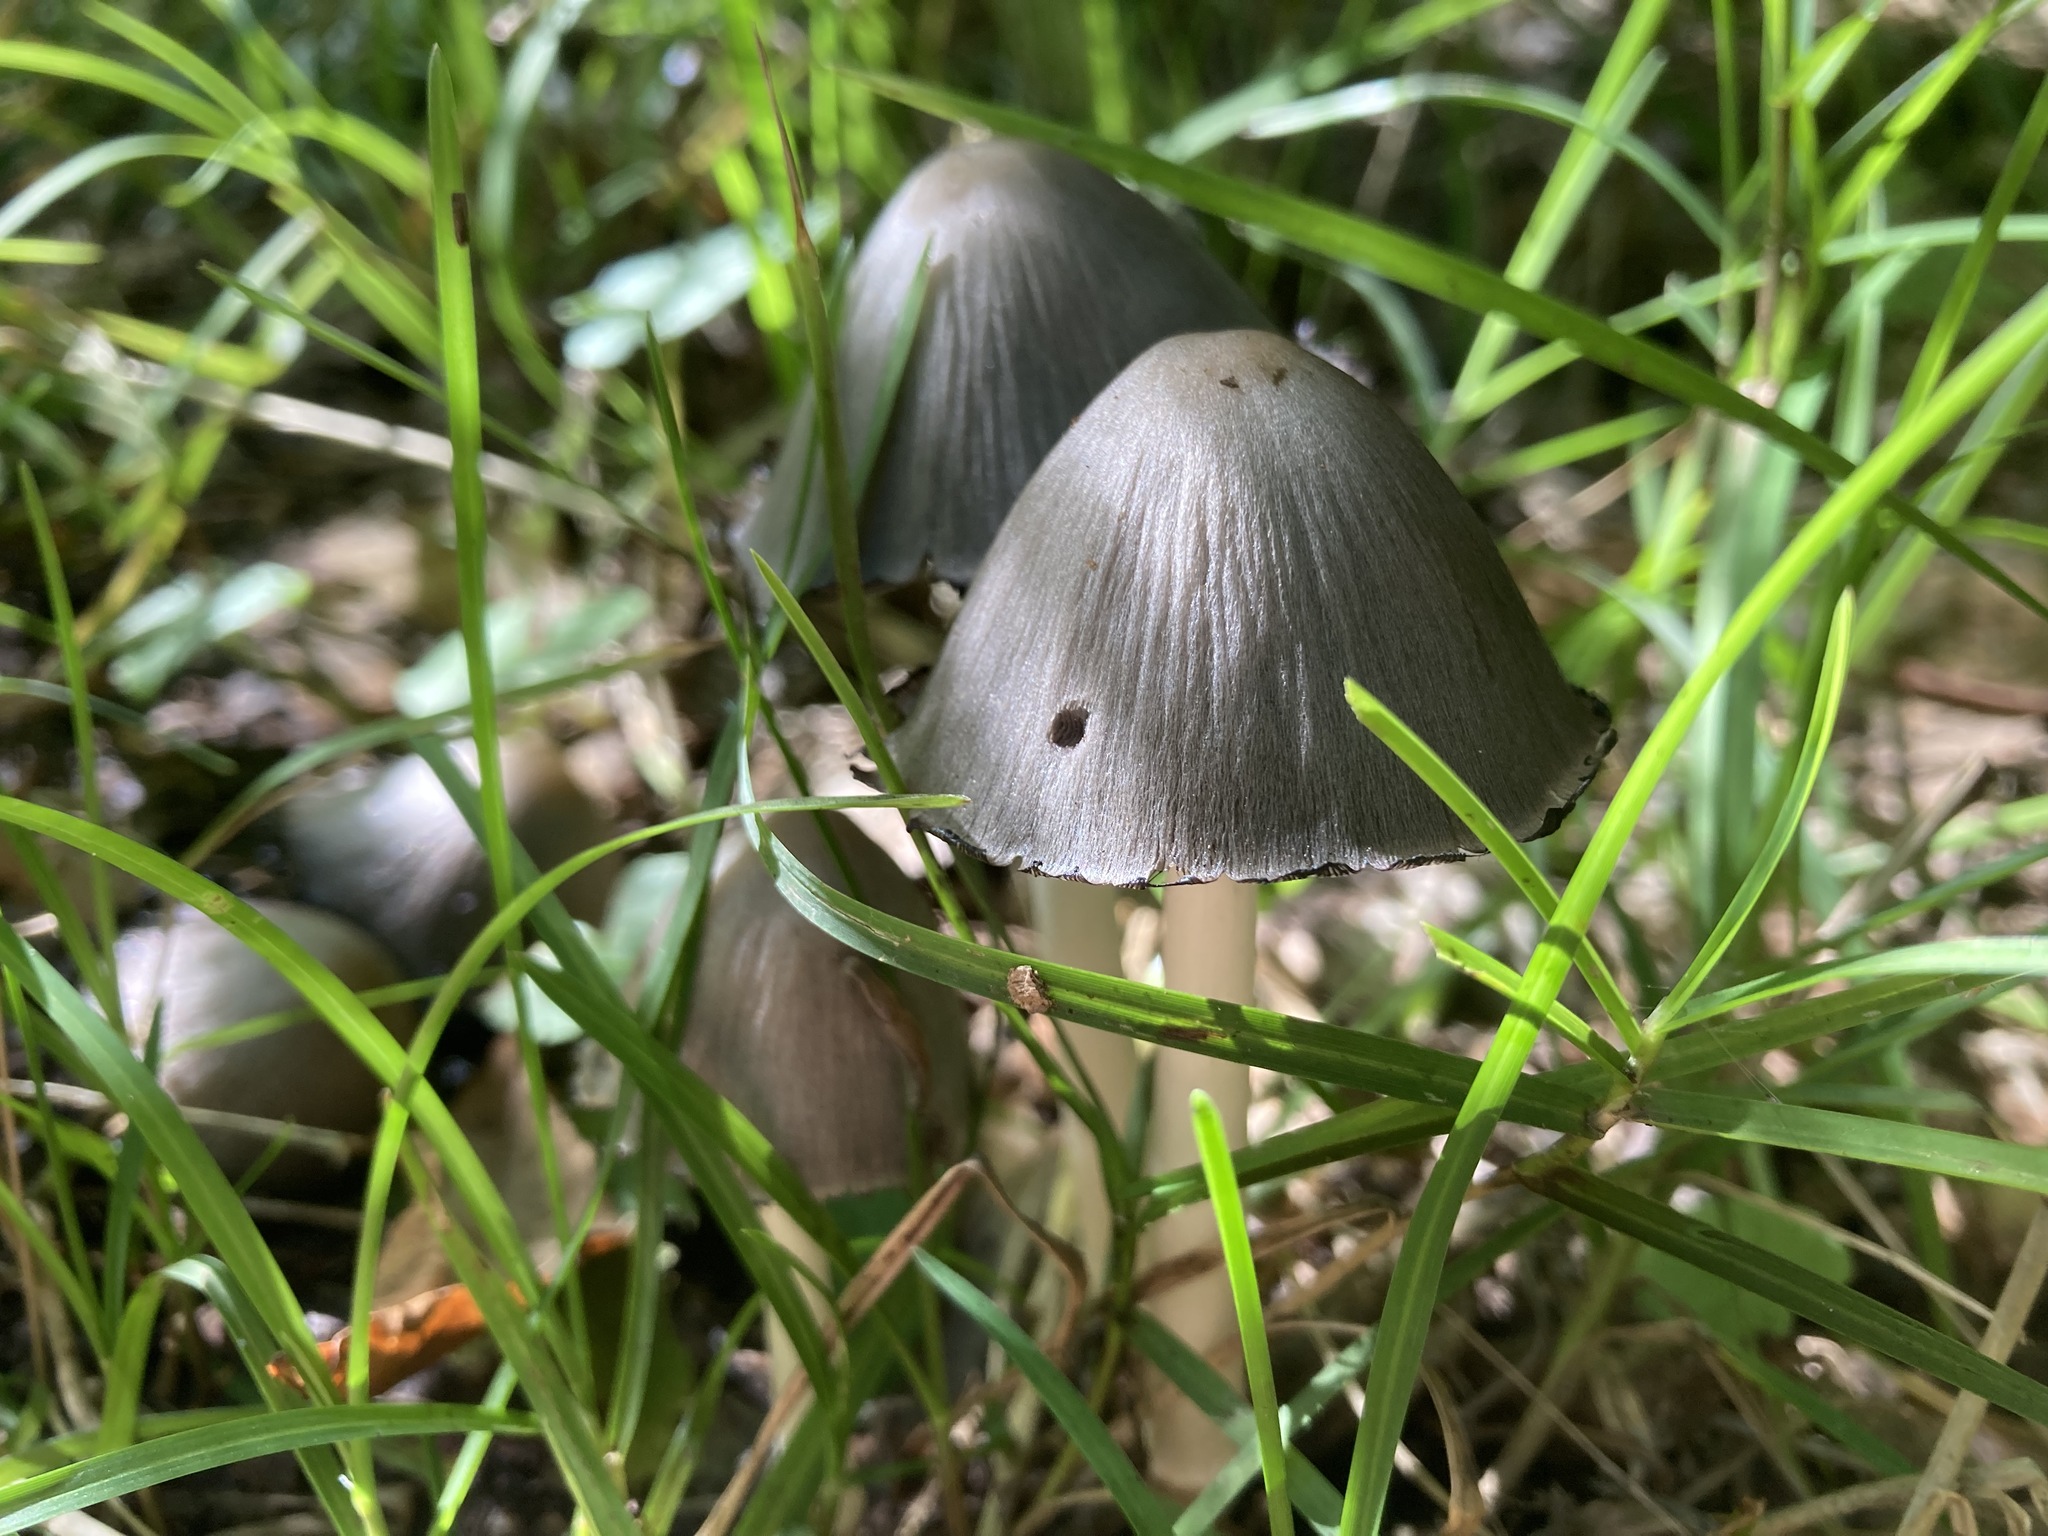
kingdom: Fungi
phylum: Basidiomycota
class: Agaricomycetes
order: Agaricales
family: Psathyrellaceae
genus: Coprinopsis
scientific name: Coprinopsis atramentaria
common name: Common ink-cap
